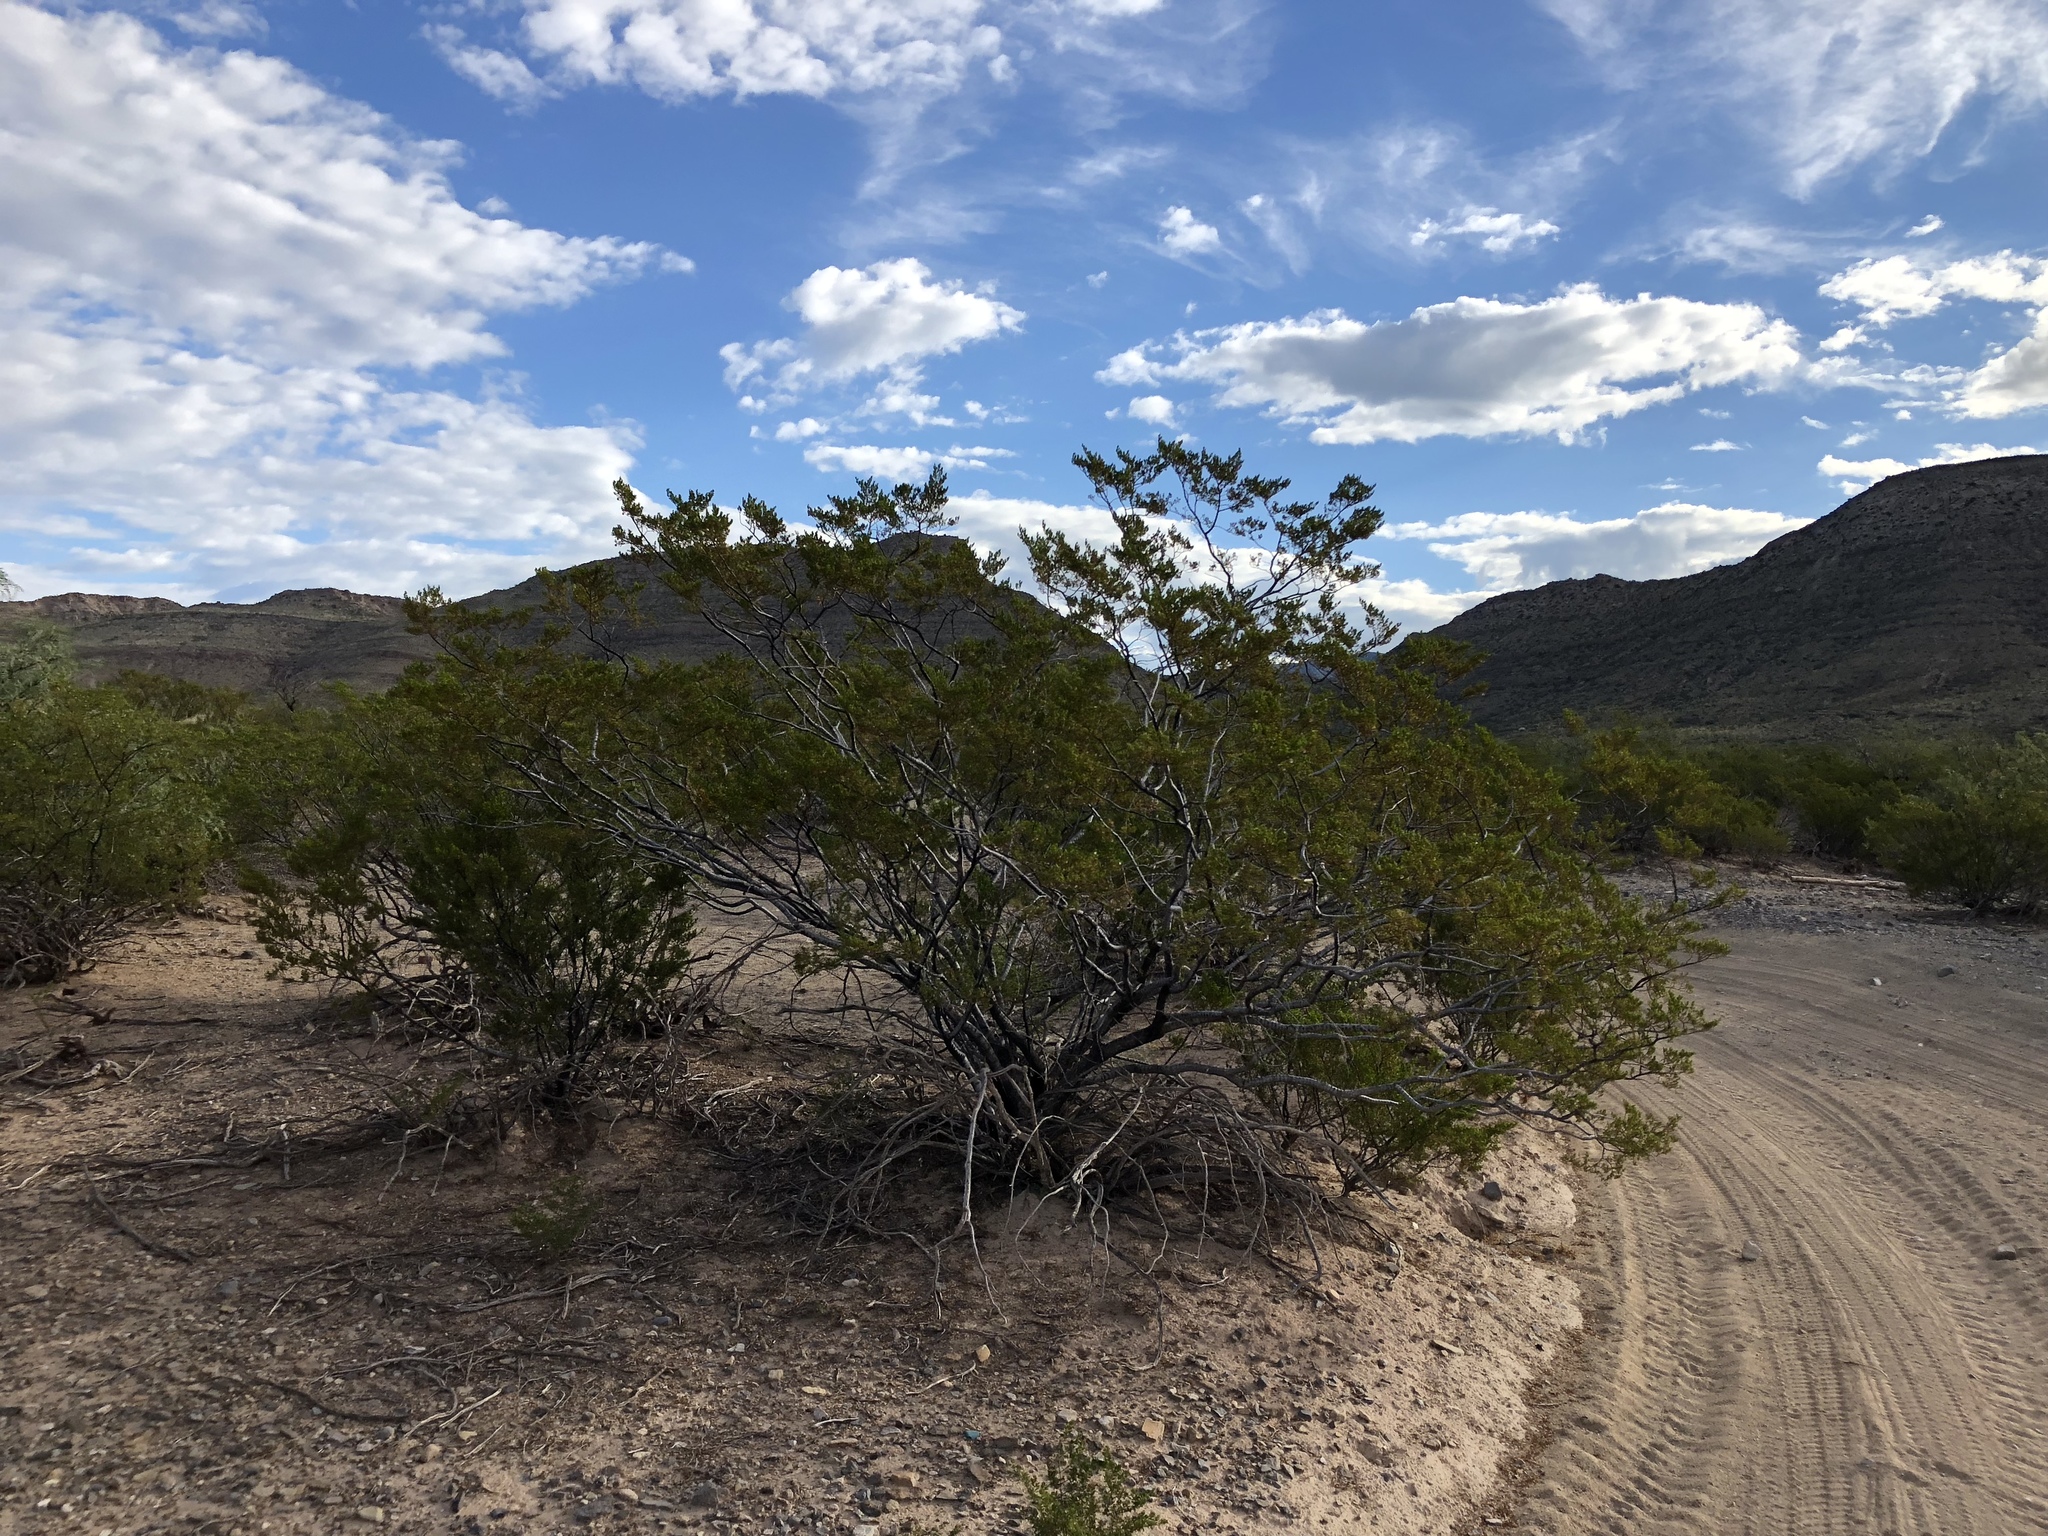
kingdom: Plantae
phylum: Tracheophyta
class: Magnoliopsida
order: Zygophyllales
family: Zygophyllaceae
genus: Larrea
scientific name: Larrea tridentata
